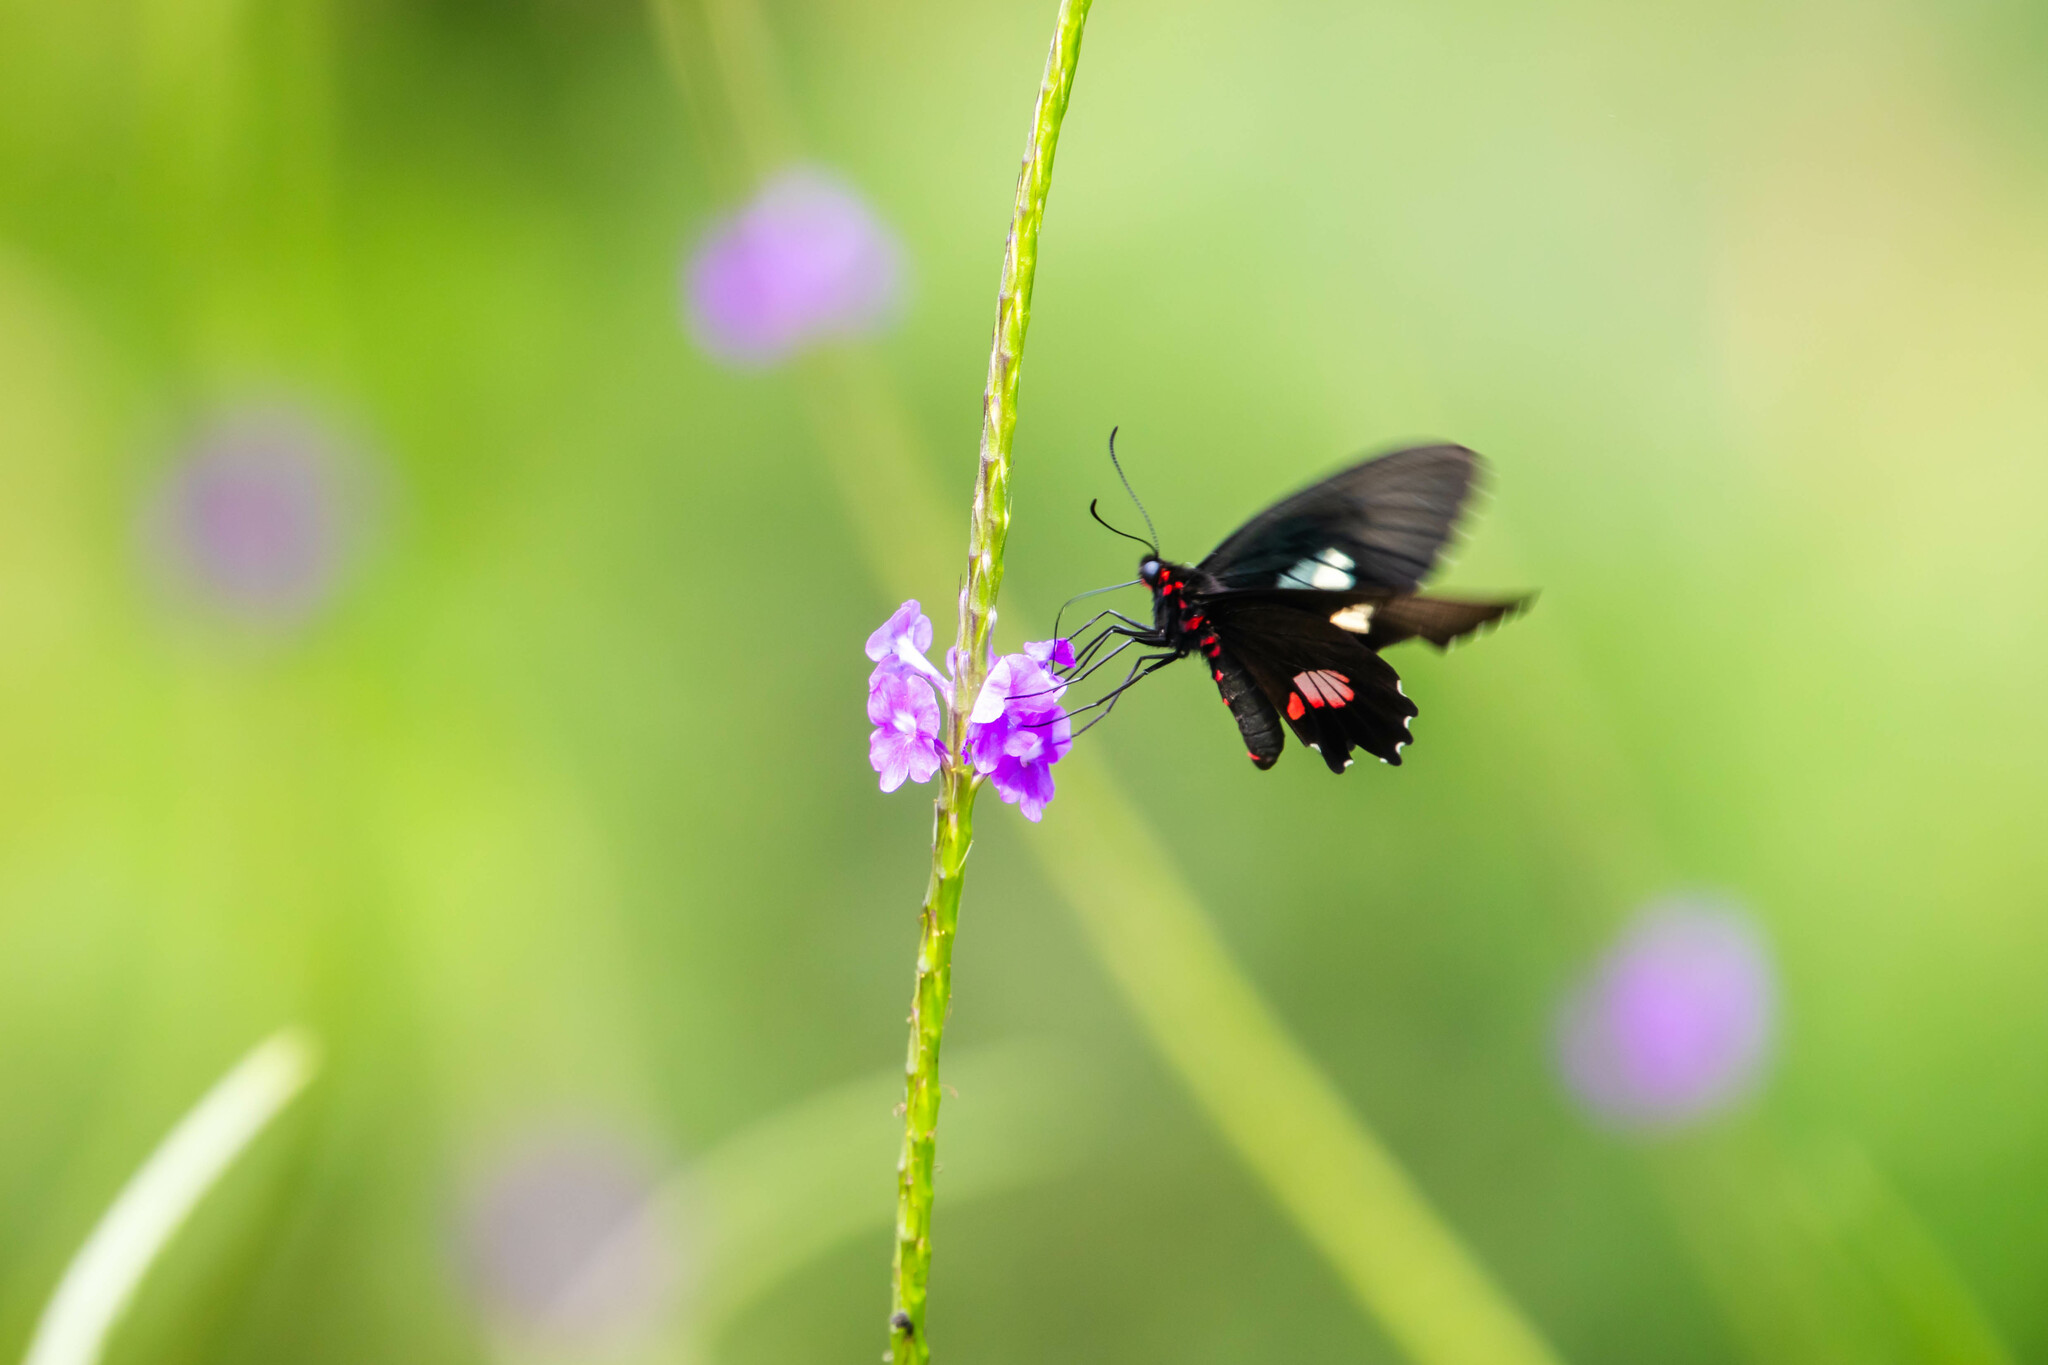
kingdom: Animalia
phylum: Arthropoda
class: Insecta
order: Lepidoptera
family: Papilionidae
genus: Parides
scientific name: Parides anchises
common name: Cattle heart
